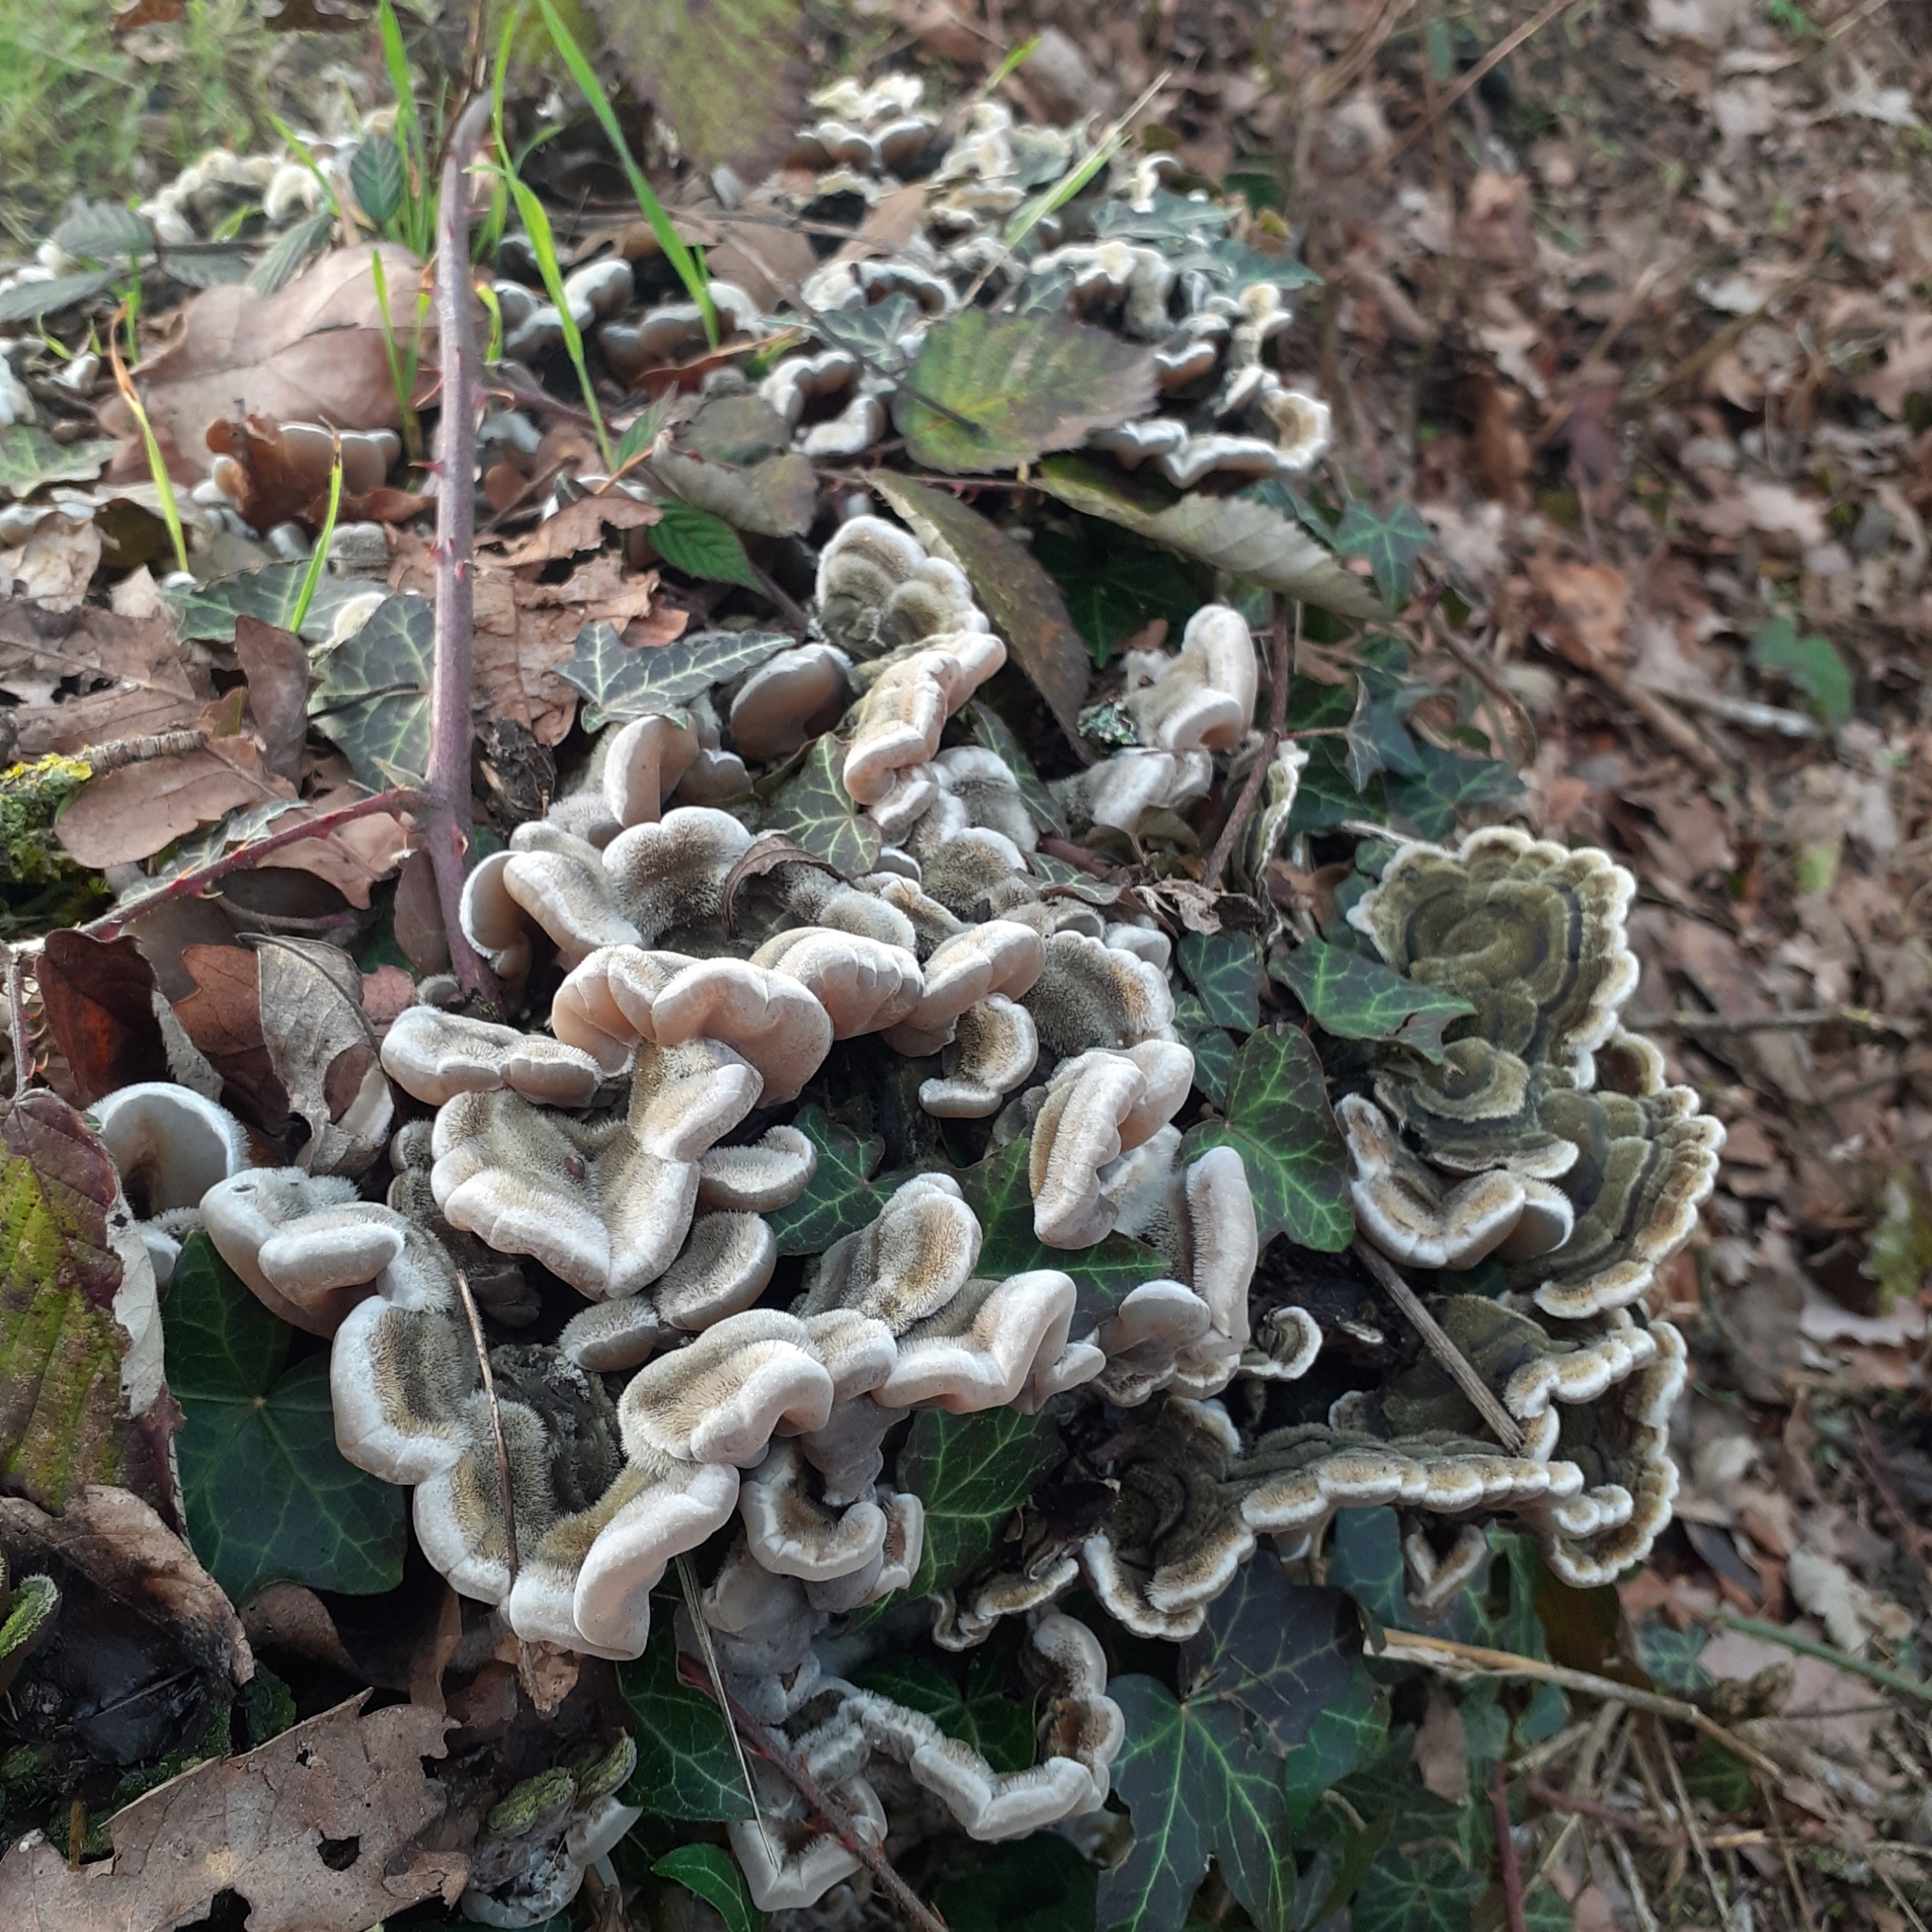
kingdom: Fungi
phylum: Basidiomycota
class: Agaricomycetes
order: Auriculariales
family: Auriculariaceae
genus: Auricularia
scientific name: Auricularia mesenterica
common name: Tripe fungus
